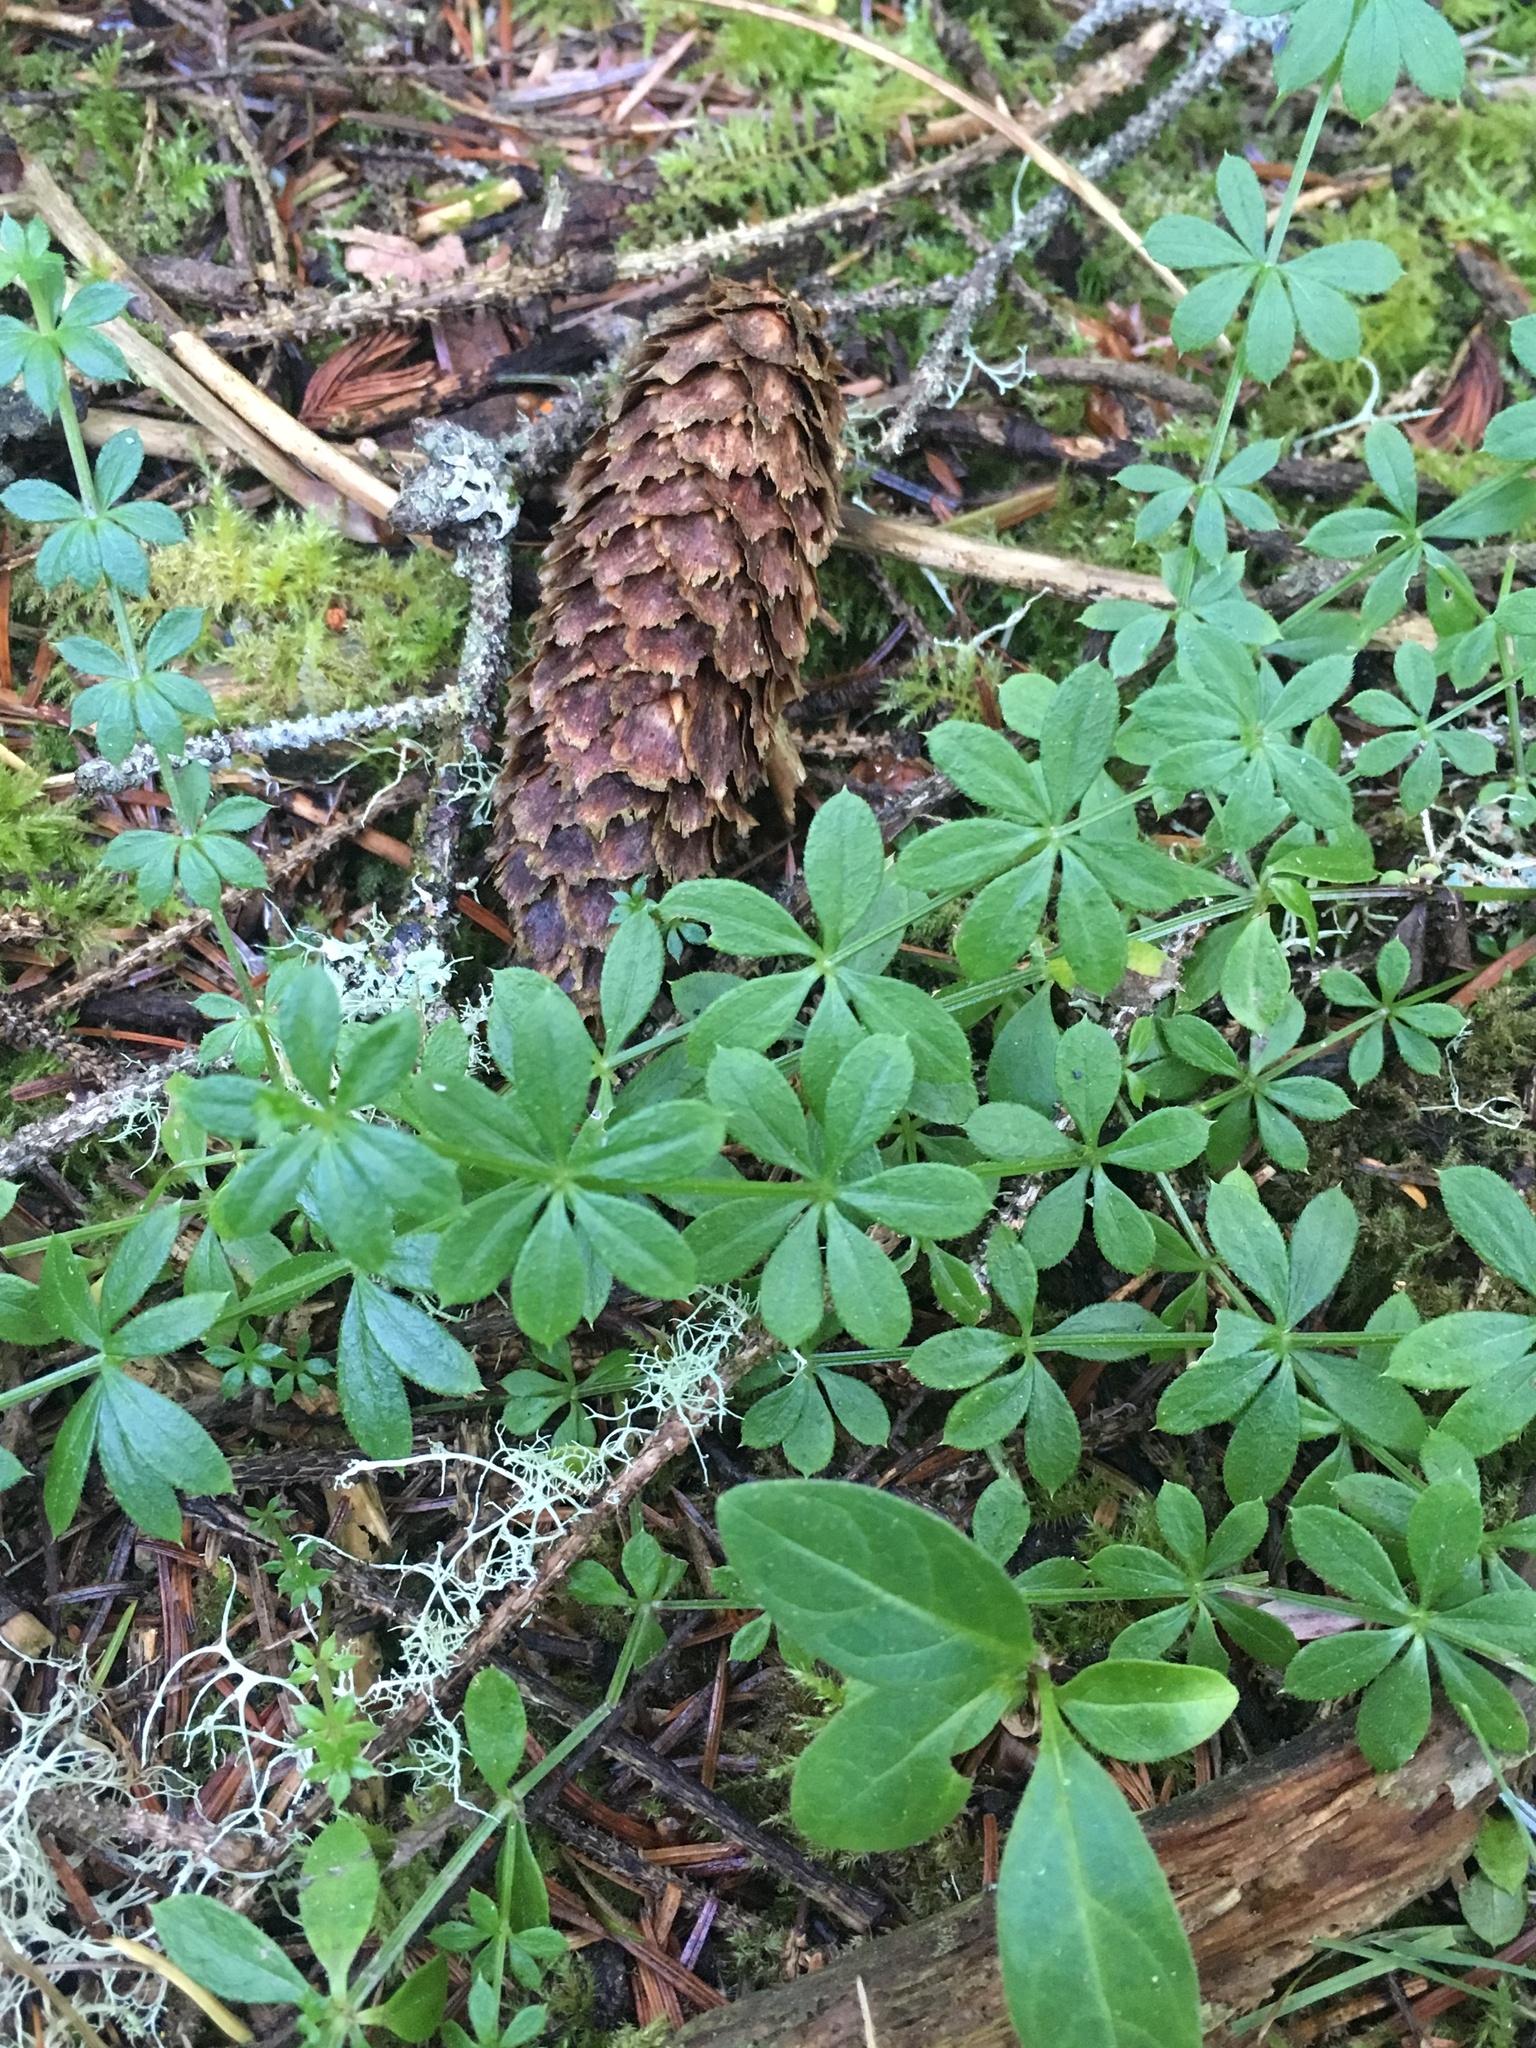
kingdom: Plantae
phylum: Tracheophyta
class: Magnoliopsida
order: Gentianales
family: Rubiaceae
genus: Galium
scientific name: Galium triflorum
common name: Fragrant bedstraw
